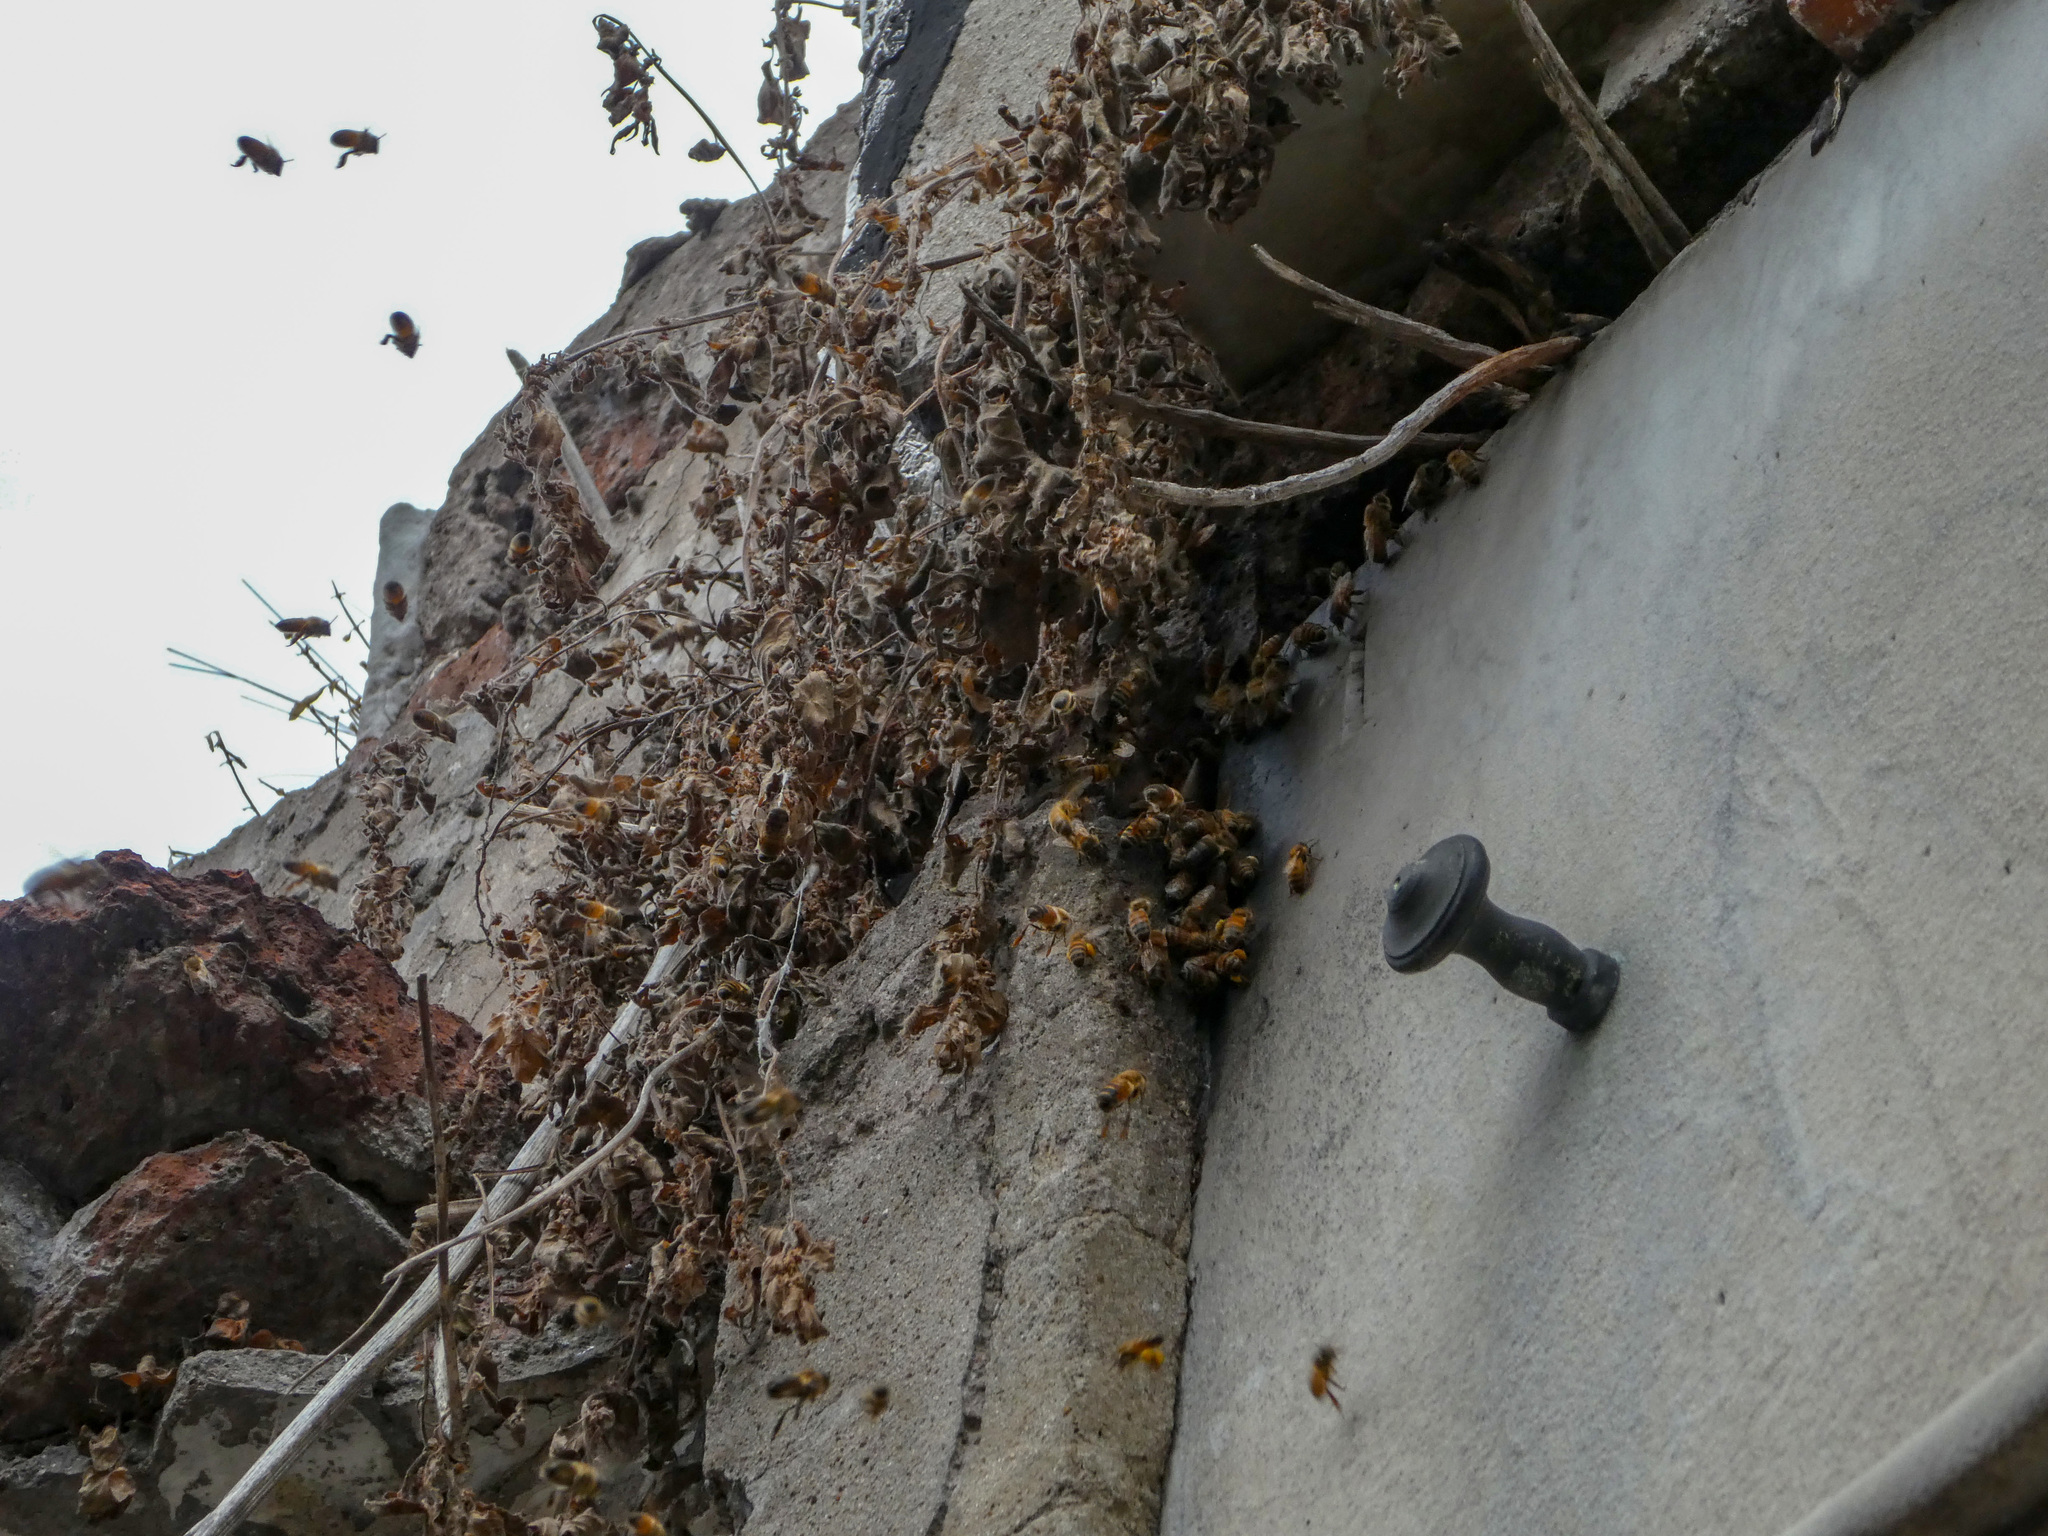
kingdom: Animalia
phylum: Arthropoda
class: Insecta
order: Hymenoptera
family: Apidae
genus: Apis
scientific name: Apis mellifera
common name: Honey bee
